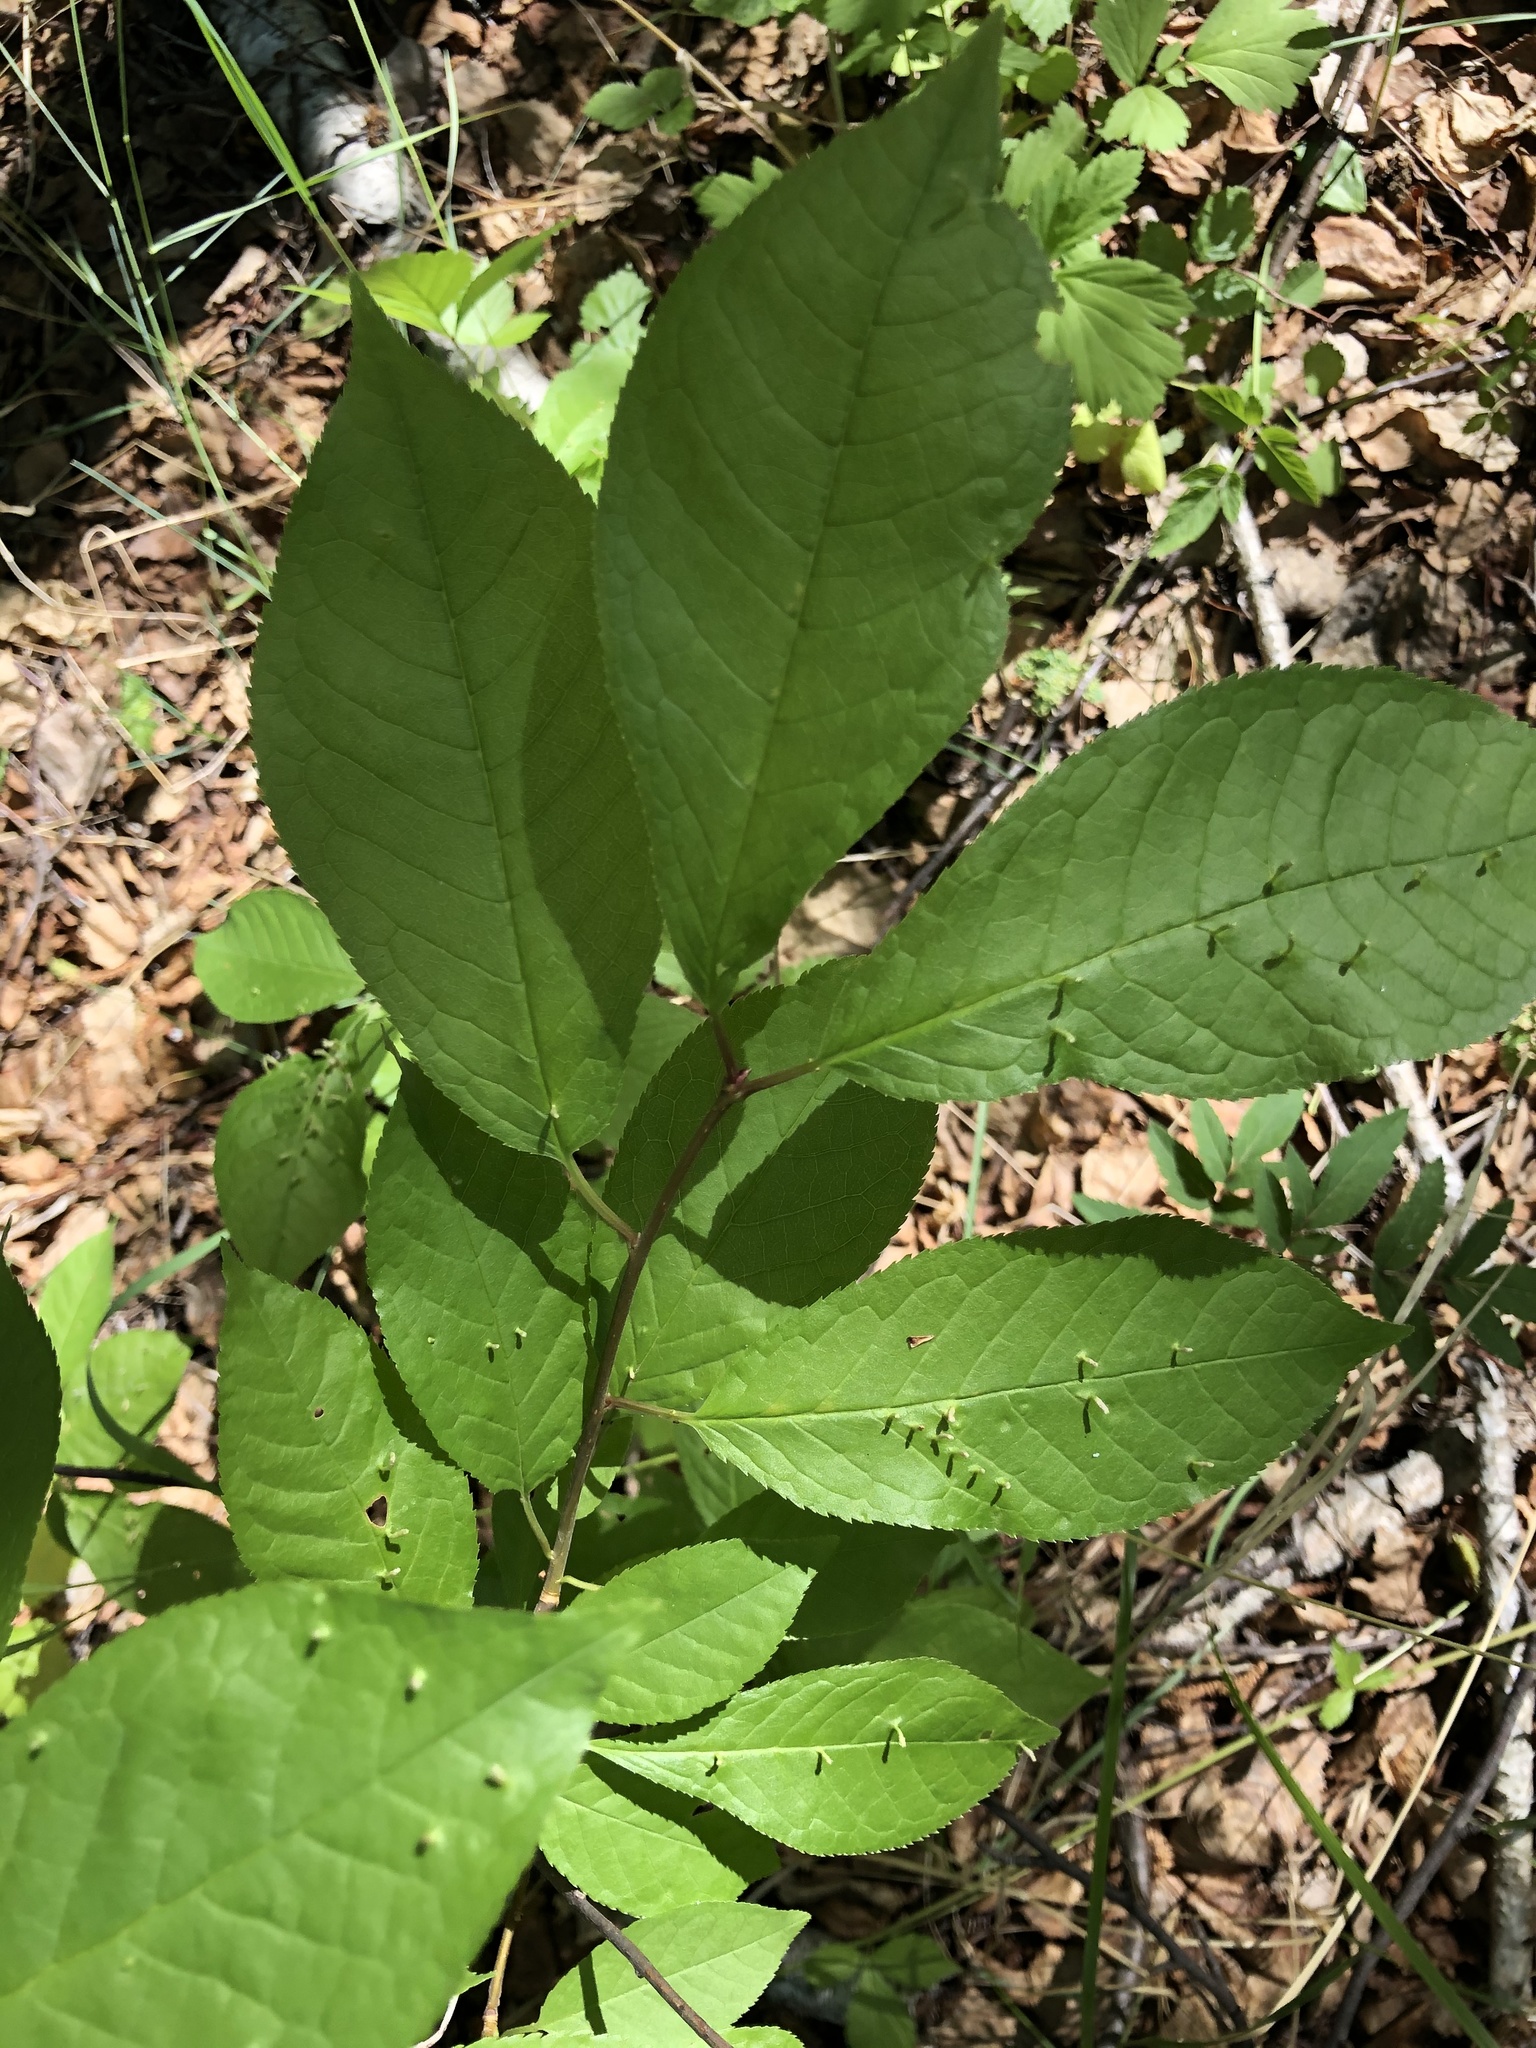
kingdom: Plantae
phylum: Tracheophyta
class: Magnoliopsida
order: Rosales
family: Rosaceae
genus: Prunus
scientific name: Prunus padus
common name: Bird cherry
